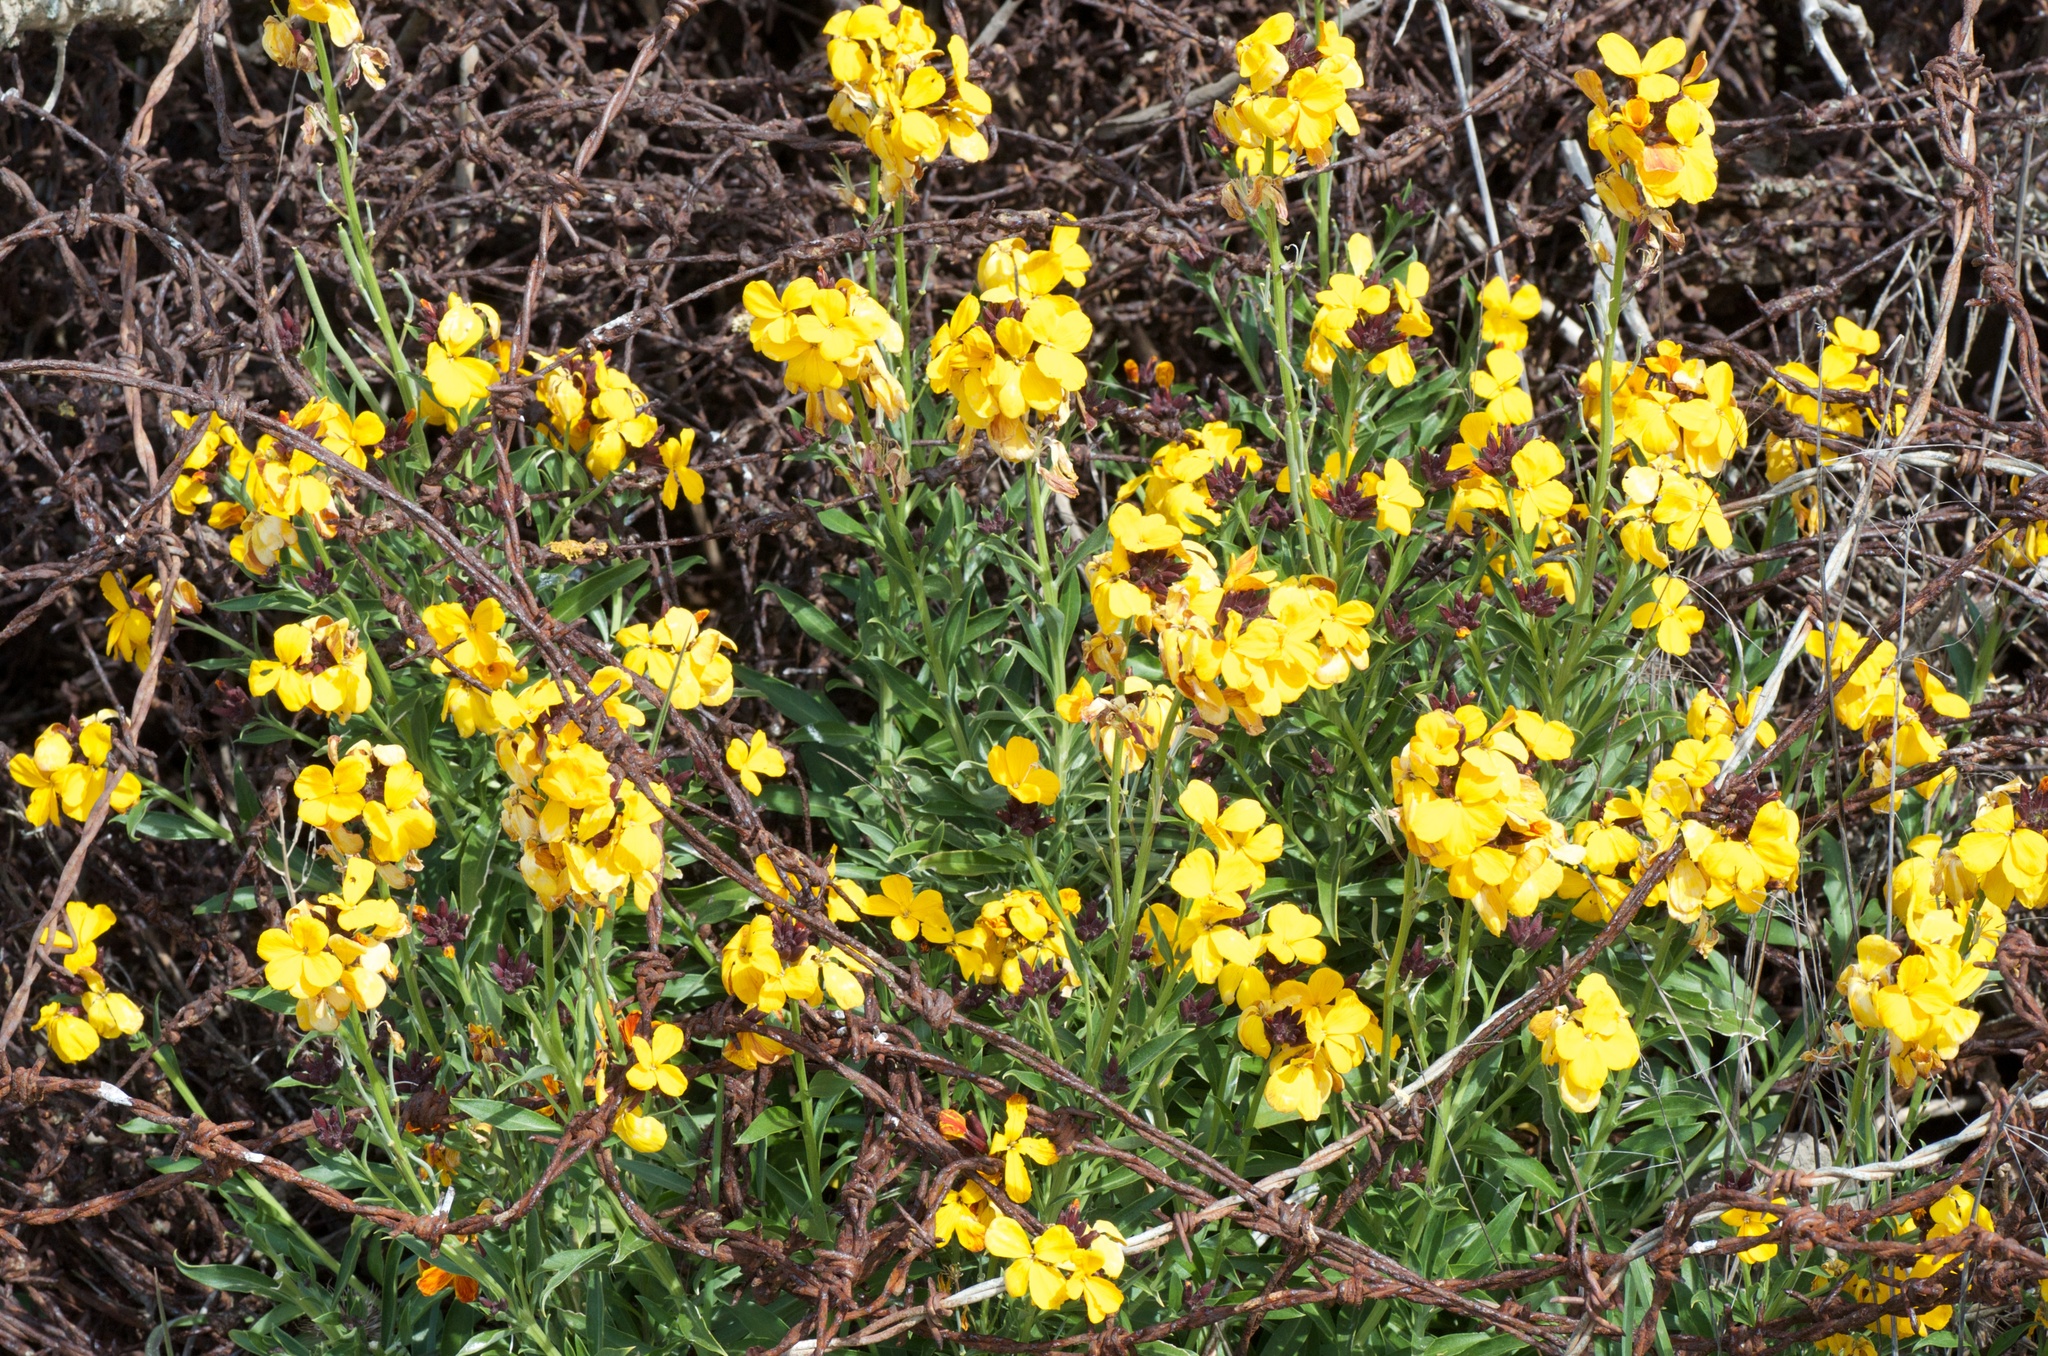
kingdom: Plantae
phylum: Tracheophyta
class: Magnoliopsida
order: Brassicales
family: Brassicaceae
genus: Erysimum
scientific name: Erysimum cheiri
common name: Wallflower
